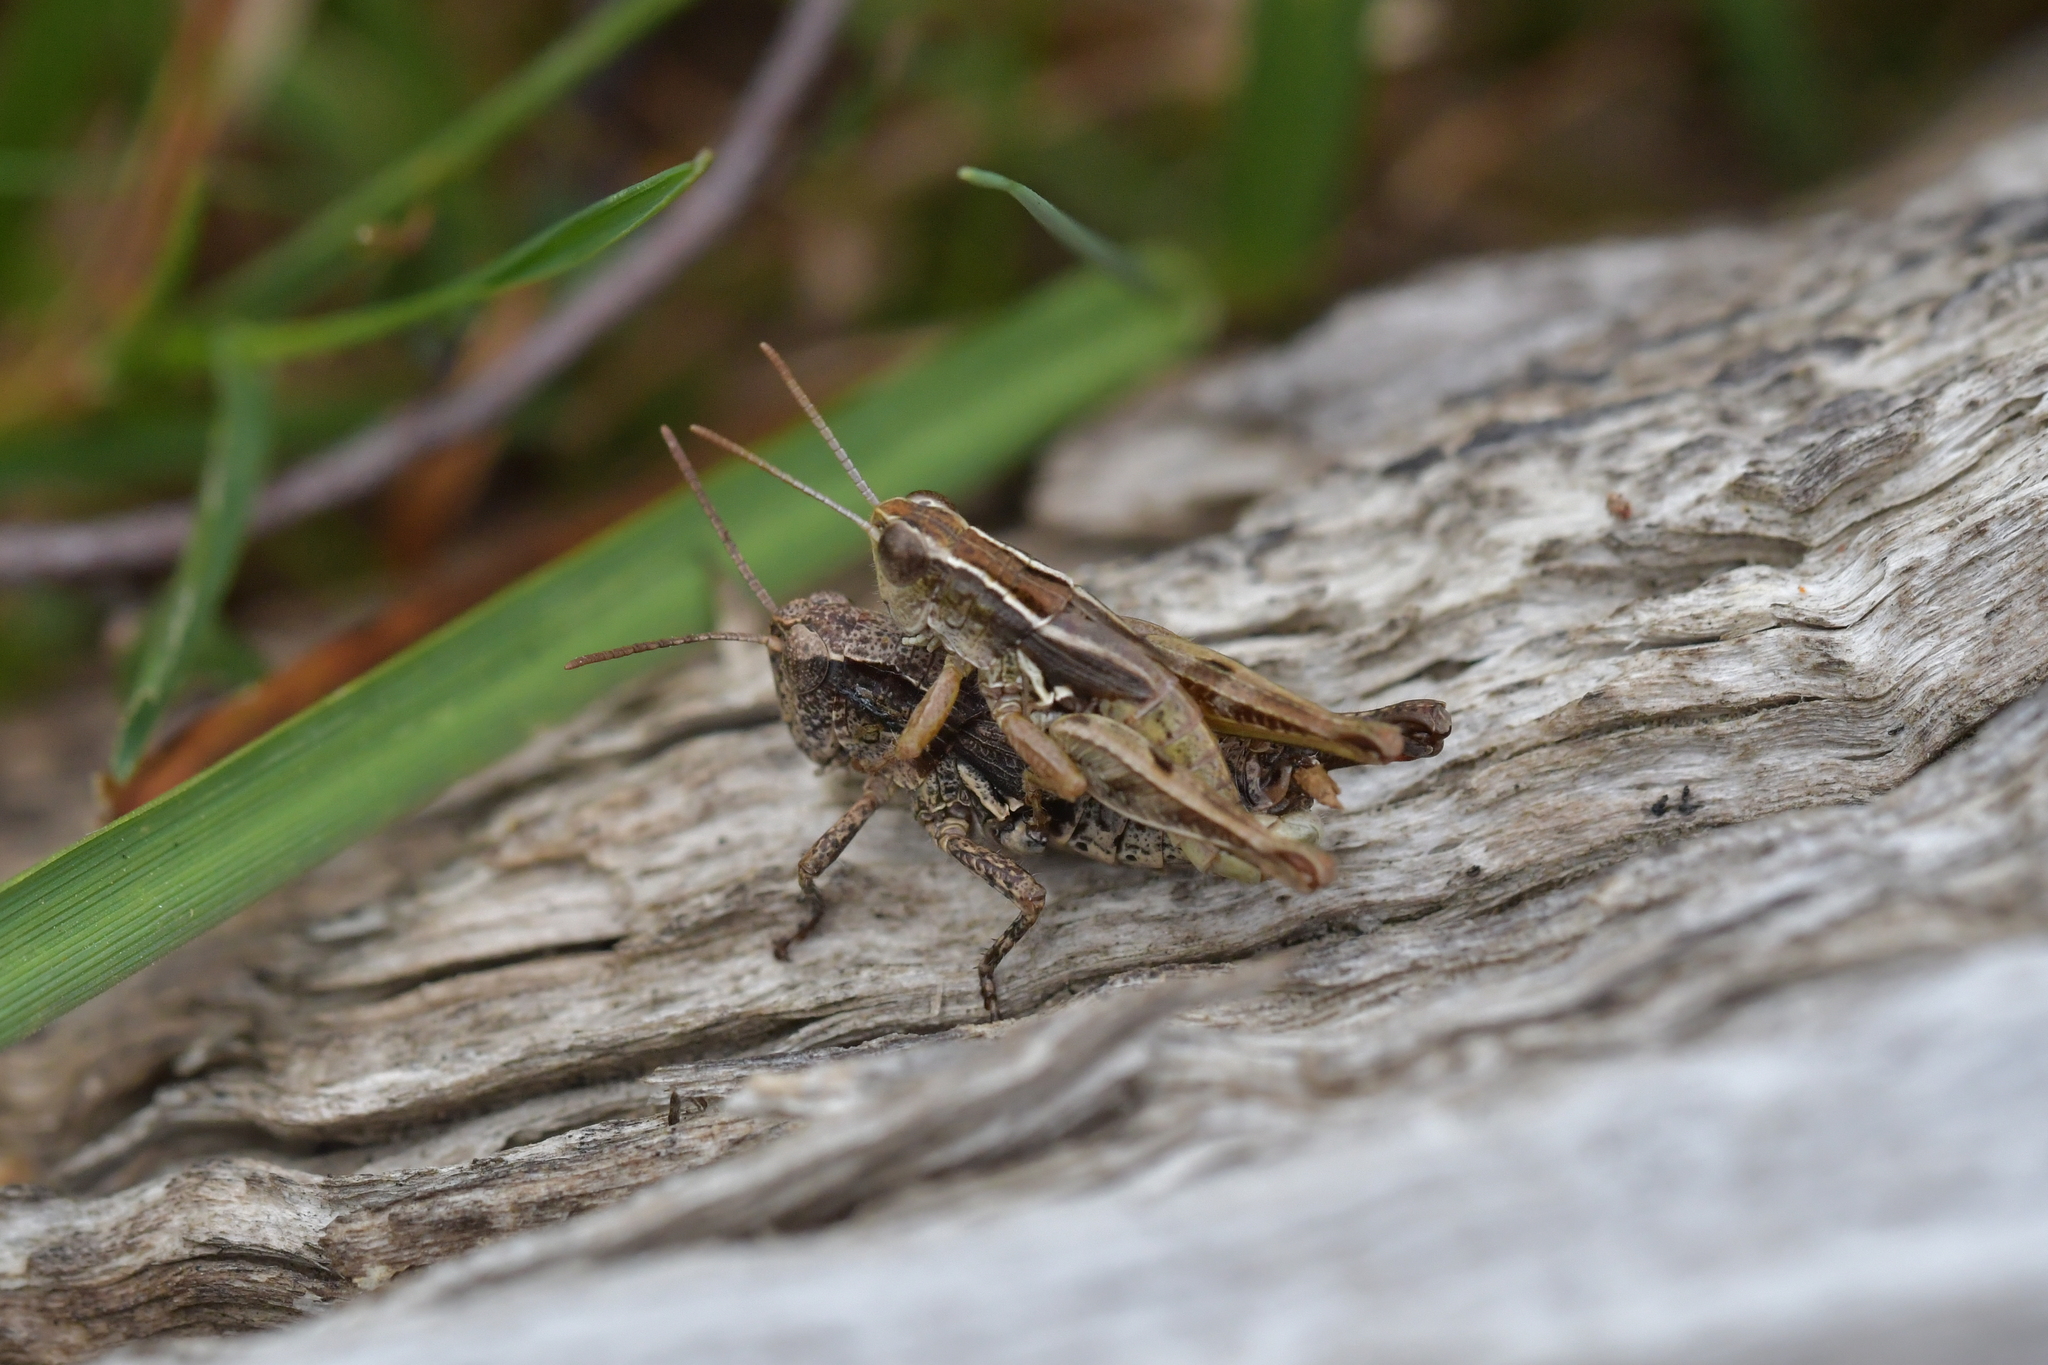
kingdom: Animalia
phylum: Arthropoda
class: Insecta
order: Orthoptera
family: Acrididae
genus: Phaulacridium
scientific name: Phaulacridium marginale
